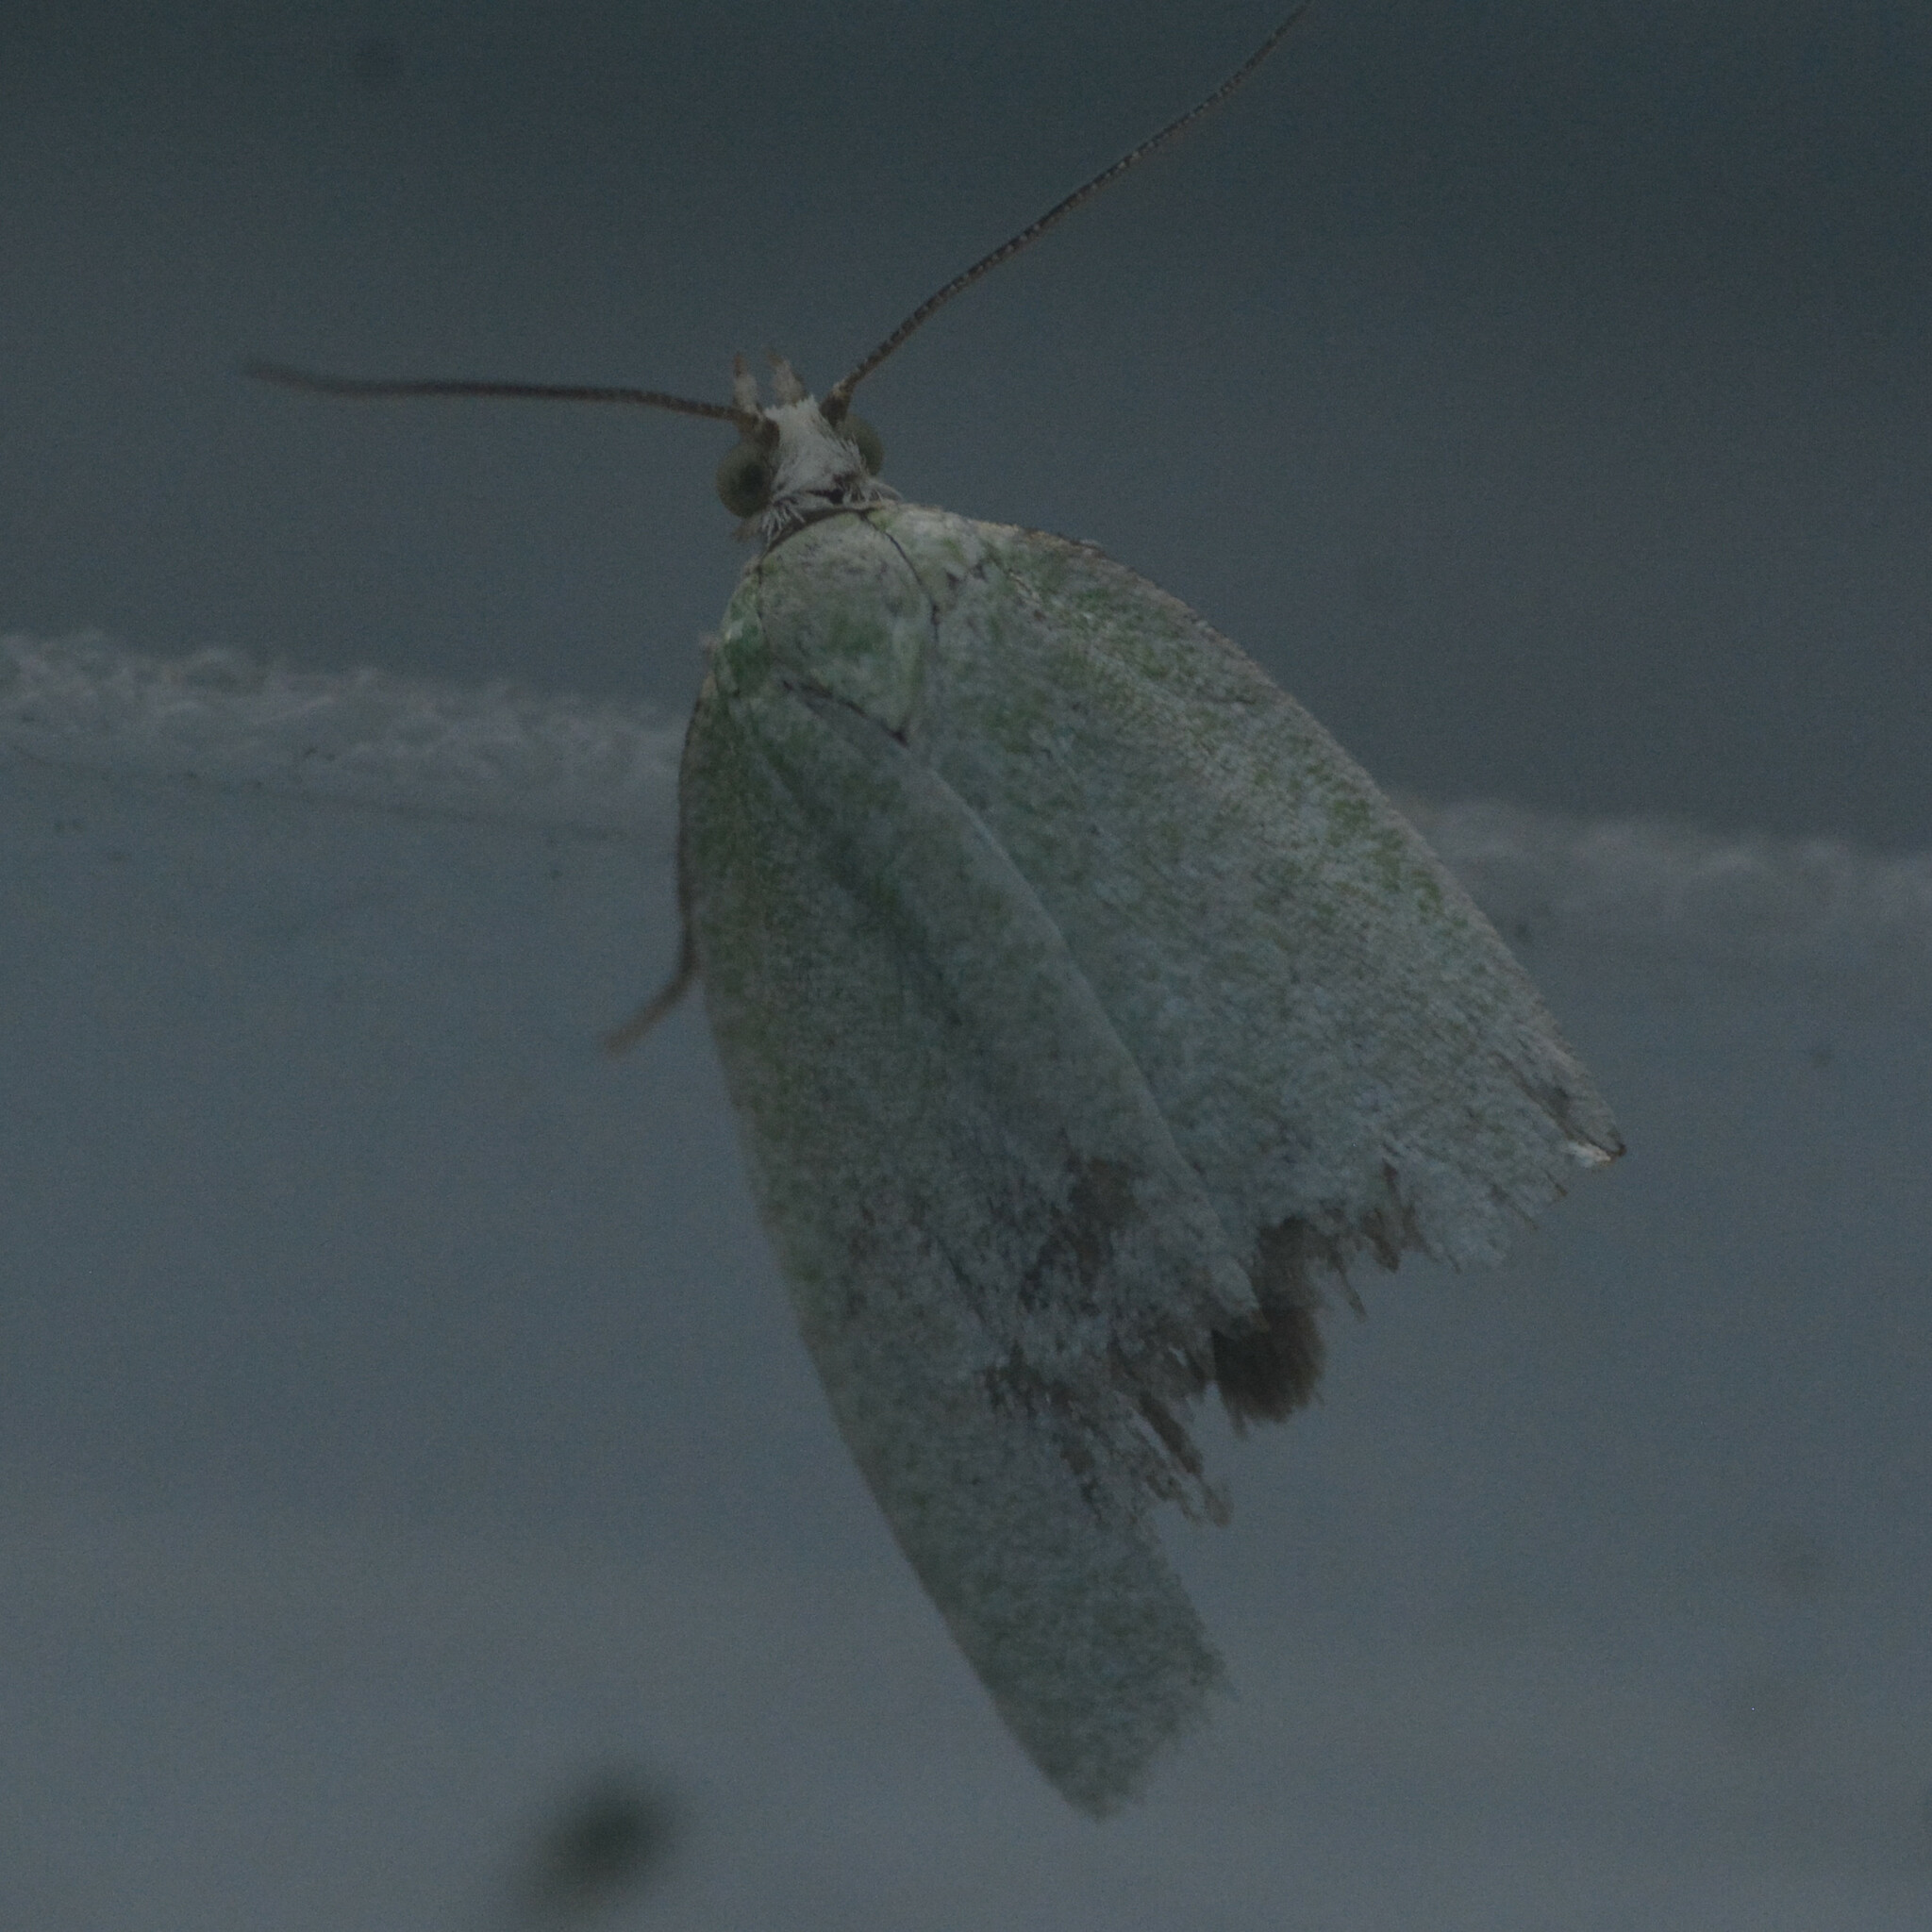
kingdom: Animalia
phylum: Arthropoda
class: Insecta
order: Lepidoptera
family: Tortricidae
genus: Tortrix
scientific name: Tortrix viridana
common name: Green oak tortrix
